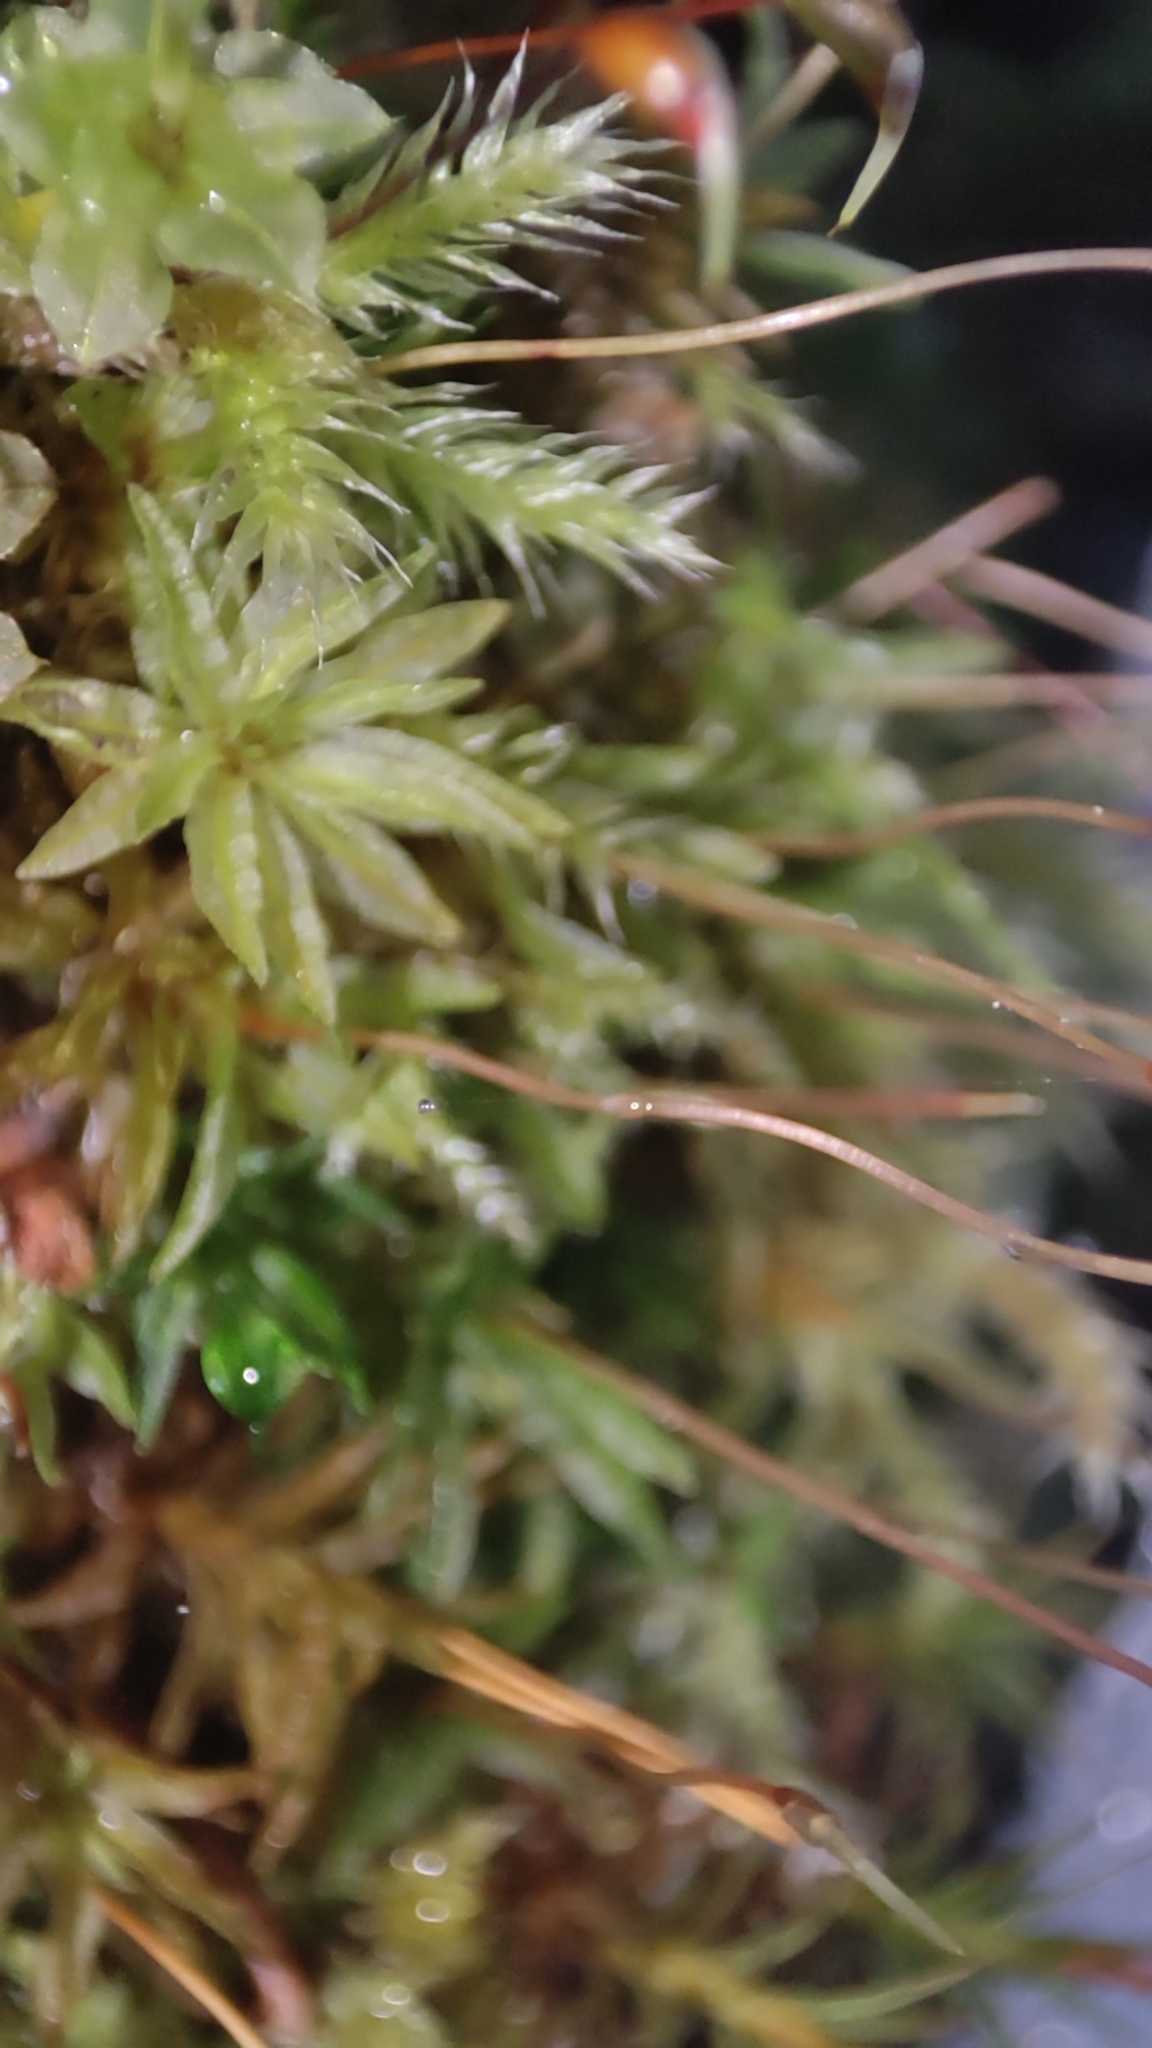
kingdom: Plantae
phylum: Bryophyta
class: Polytrichopsida
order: Tetraphidales
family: Tetraphidaceae
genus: Tetraphis
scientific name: Tetraphis pellucida
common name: Common four-toothed moss
